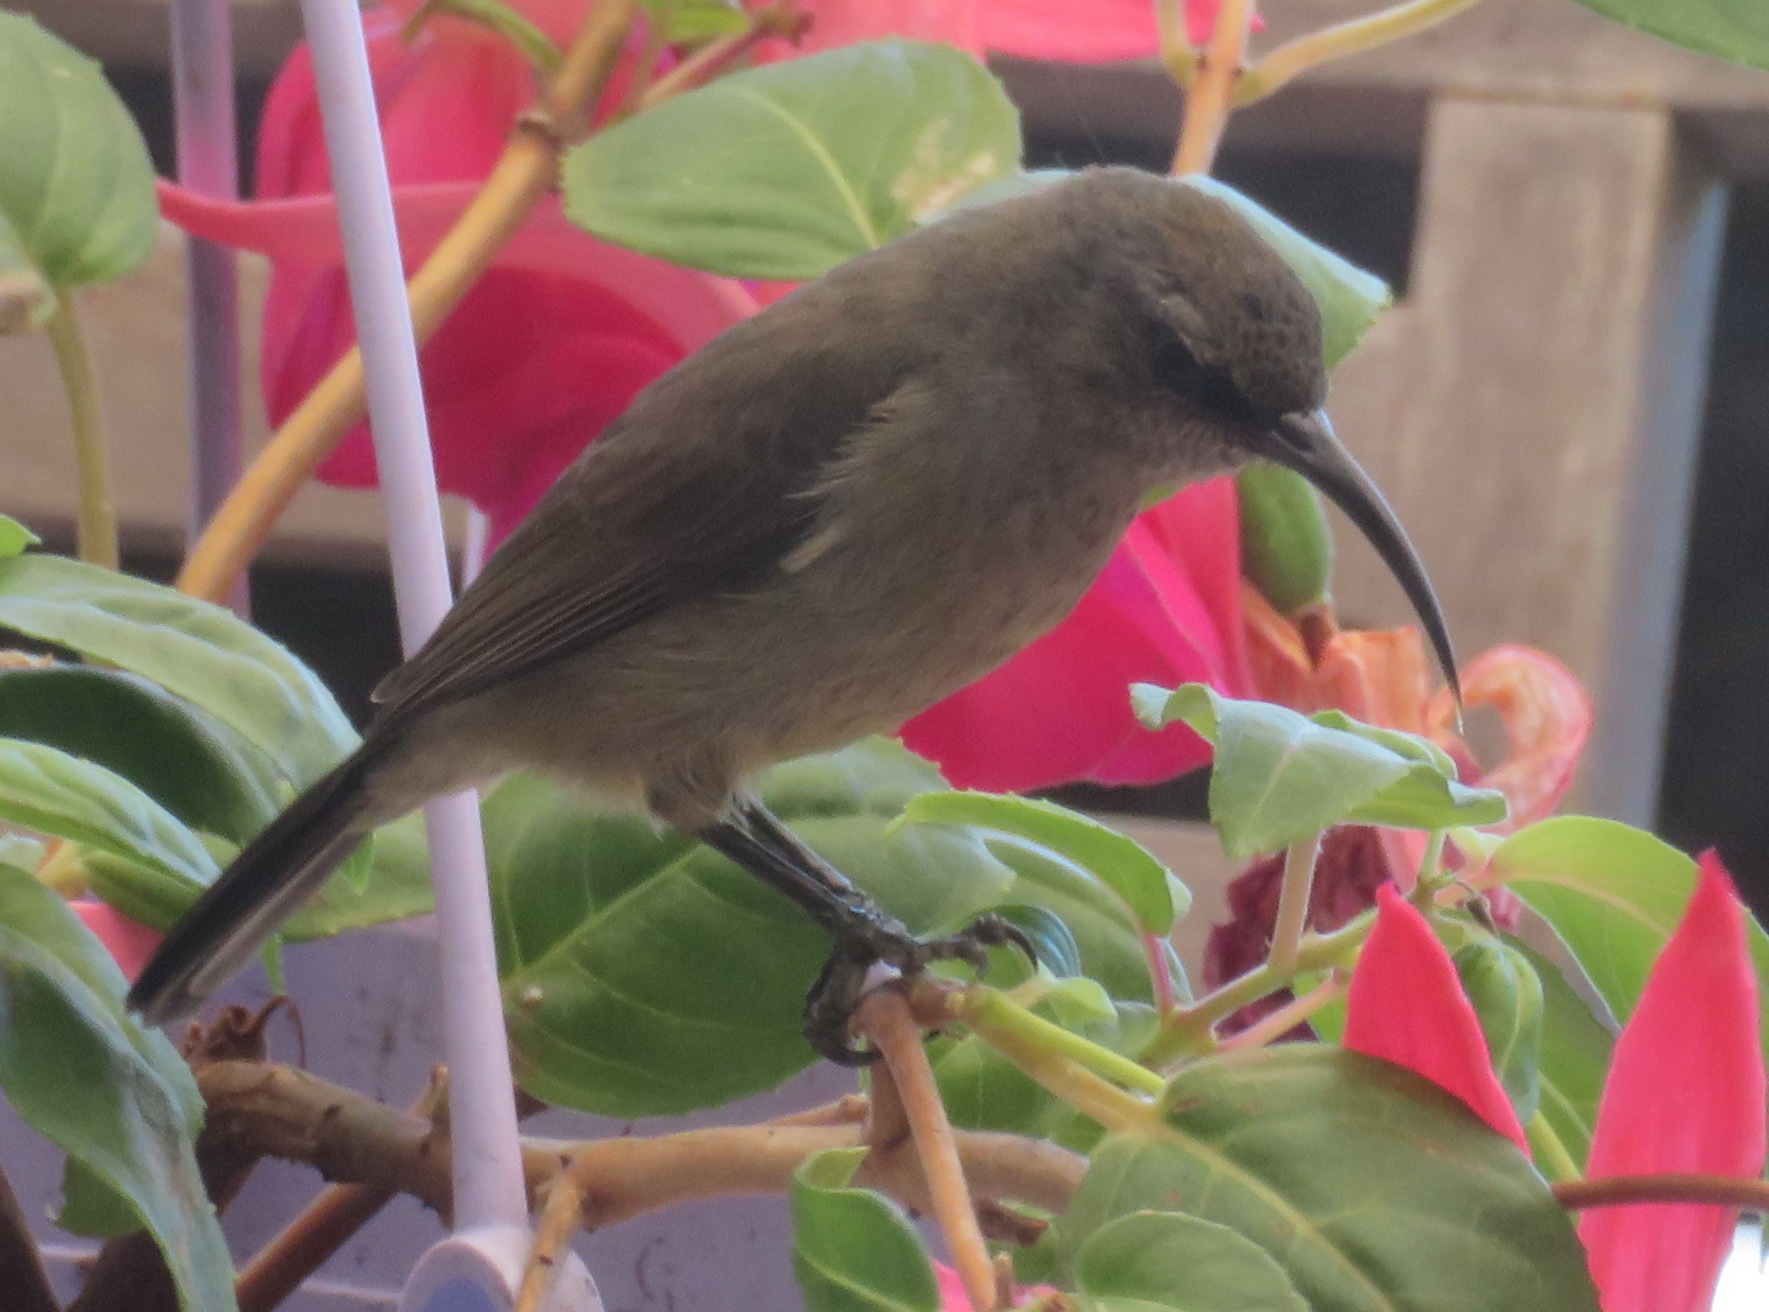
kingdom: Animalia
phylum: Chordata
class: Aves
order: Passeriformes
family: Nectariniidae
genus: Cinnyris
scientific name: Cinnyris afer
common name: Greater double-collared sunbird
